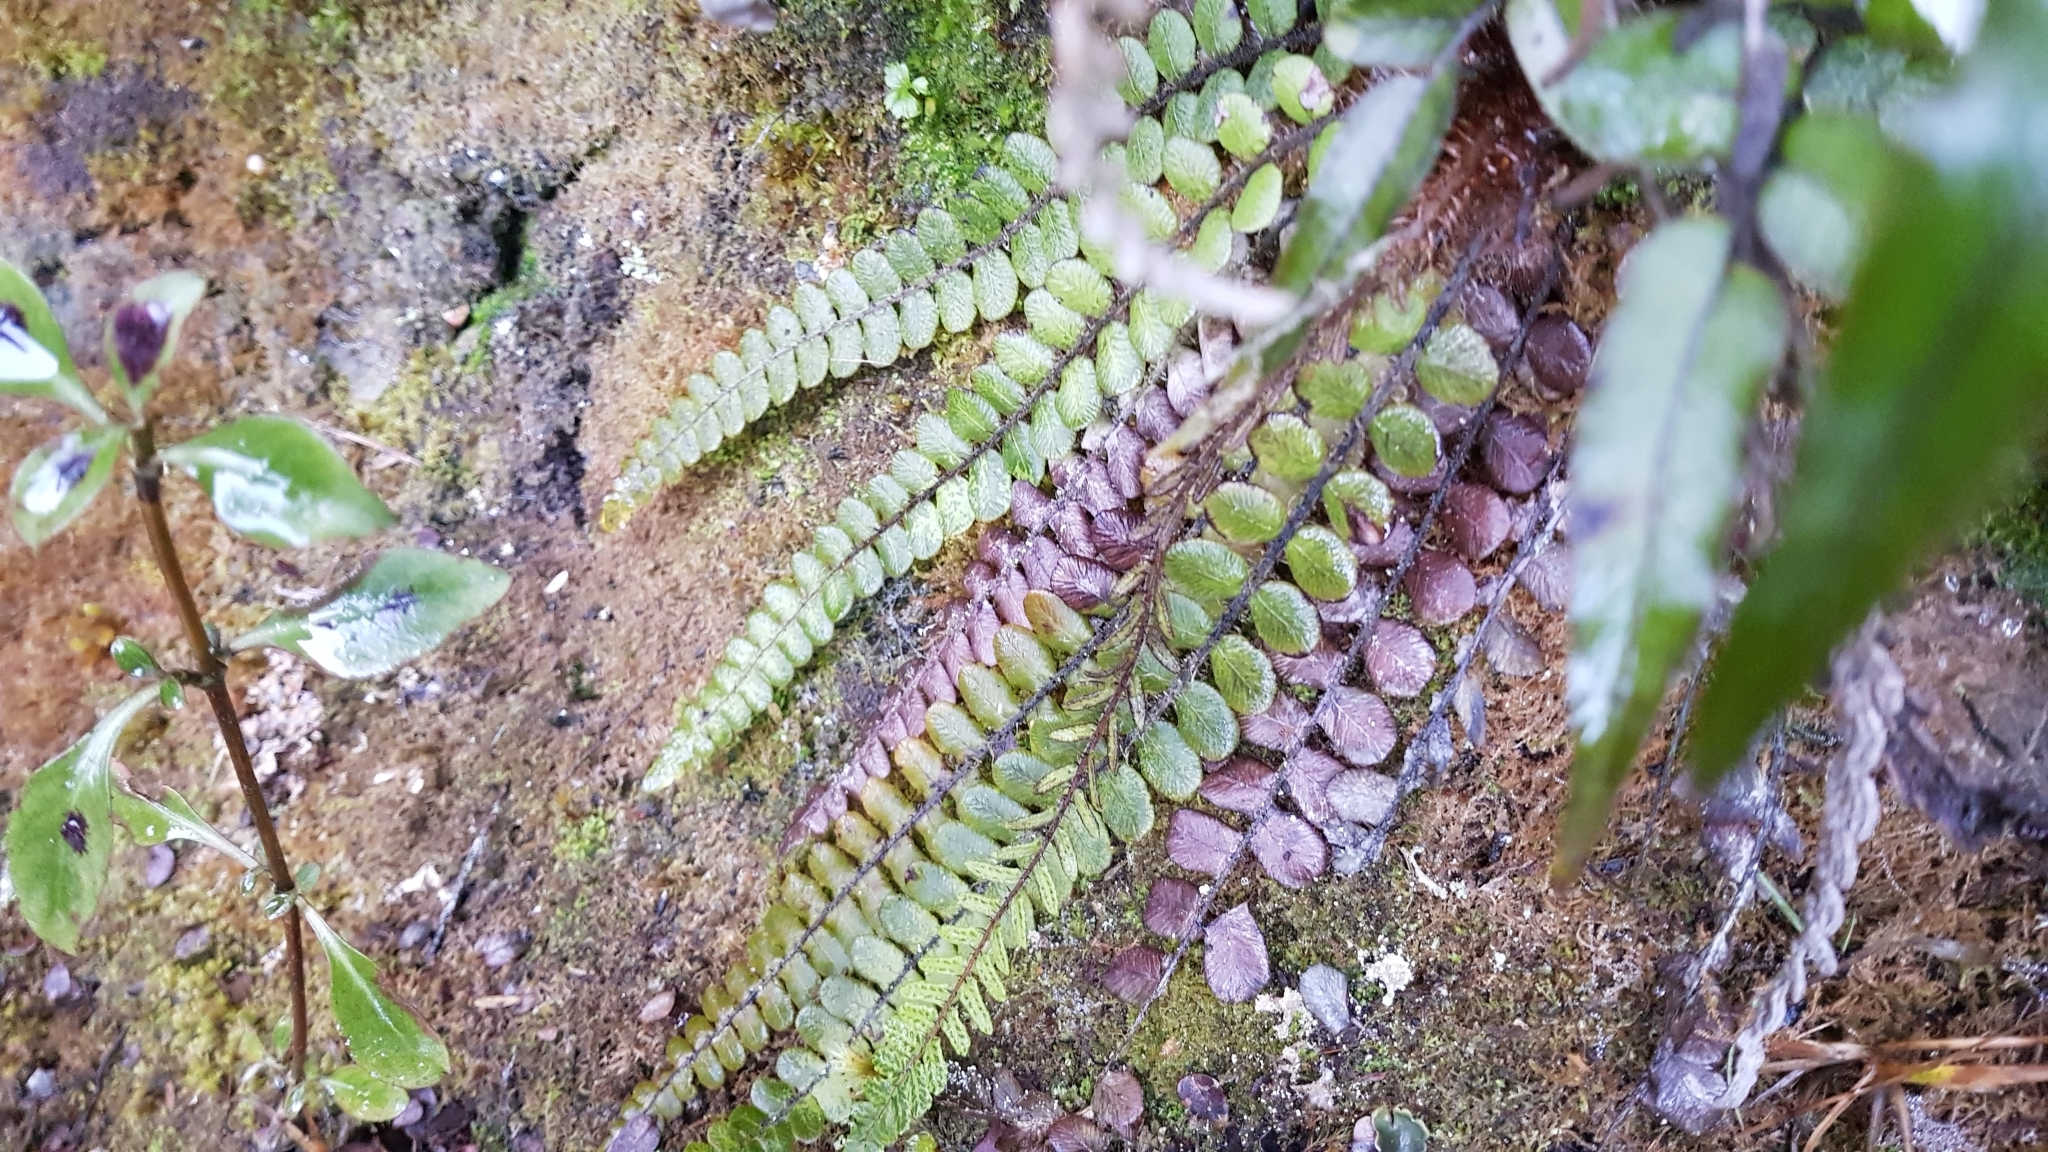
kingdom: Plantae
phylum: Tracheophyta
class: Polypodiopsida
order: Polypodiales
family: Blechnaceae
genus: Cranfillia
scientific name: Cranfillia fluviatilis
